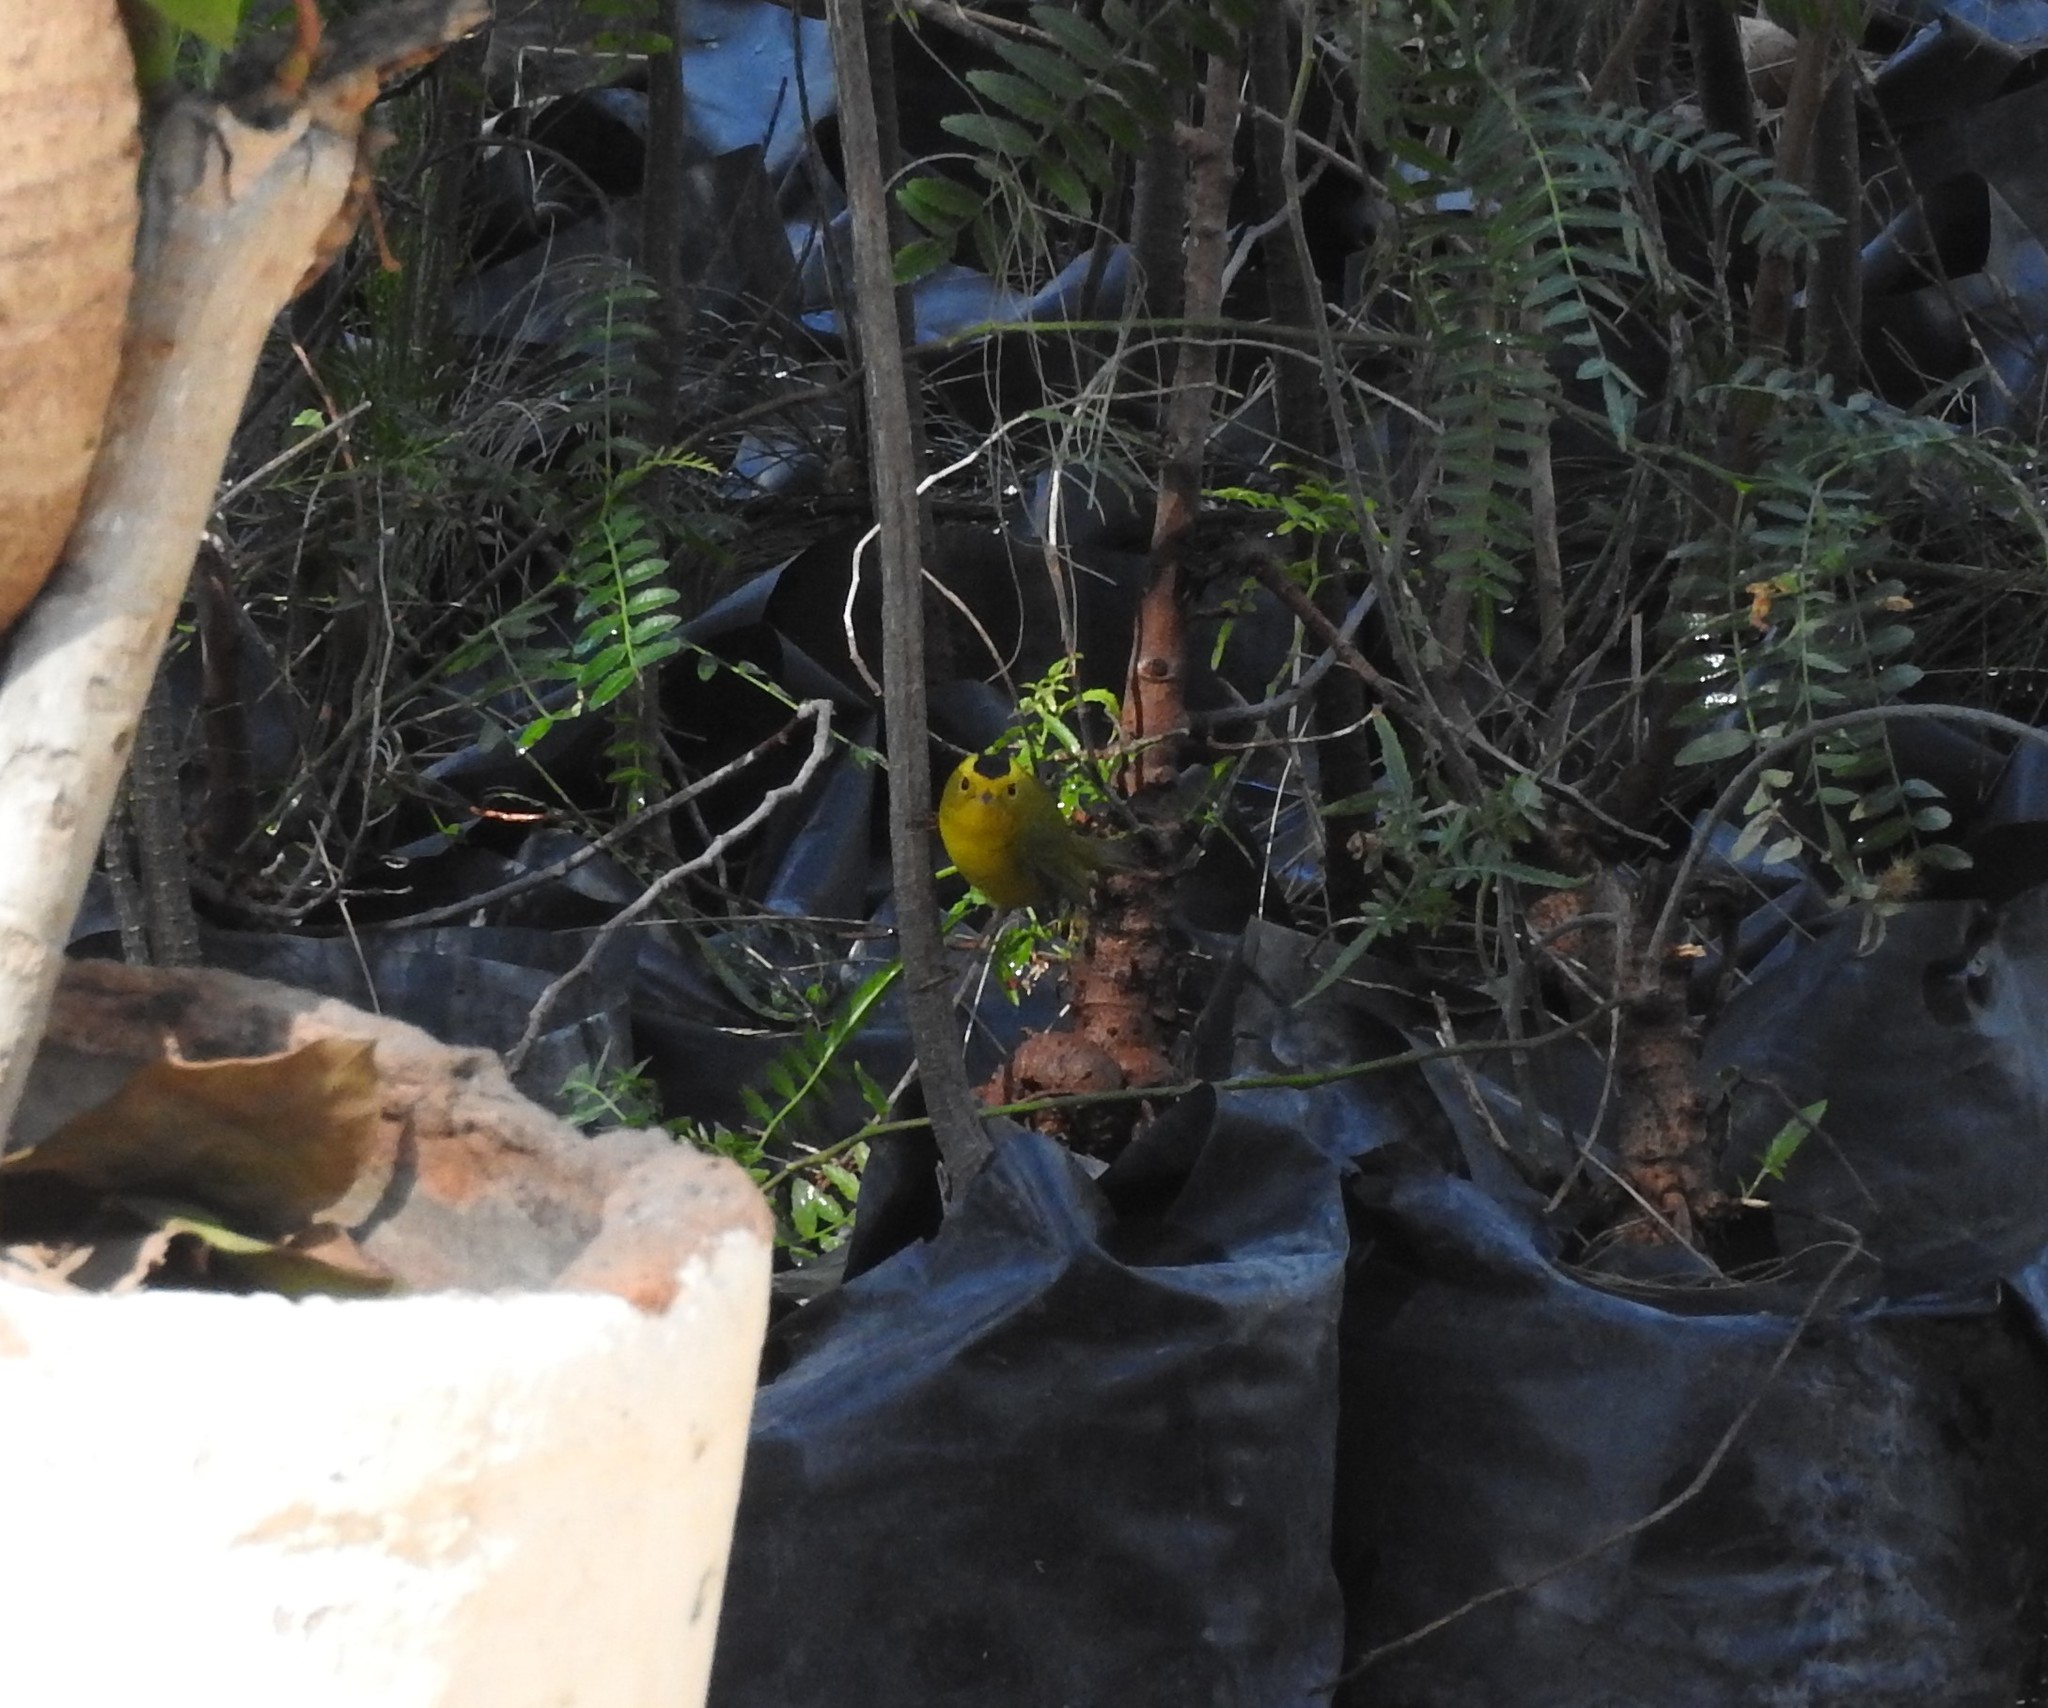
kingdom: Animalia
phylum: Chordata
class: Aves
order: Passeriformes
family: Parulidae
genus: Cardellina
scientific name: Cardellina pusilla
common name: Wilson's warbler
